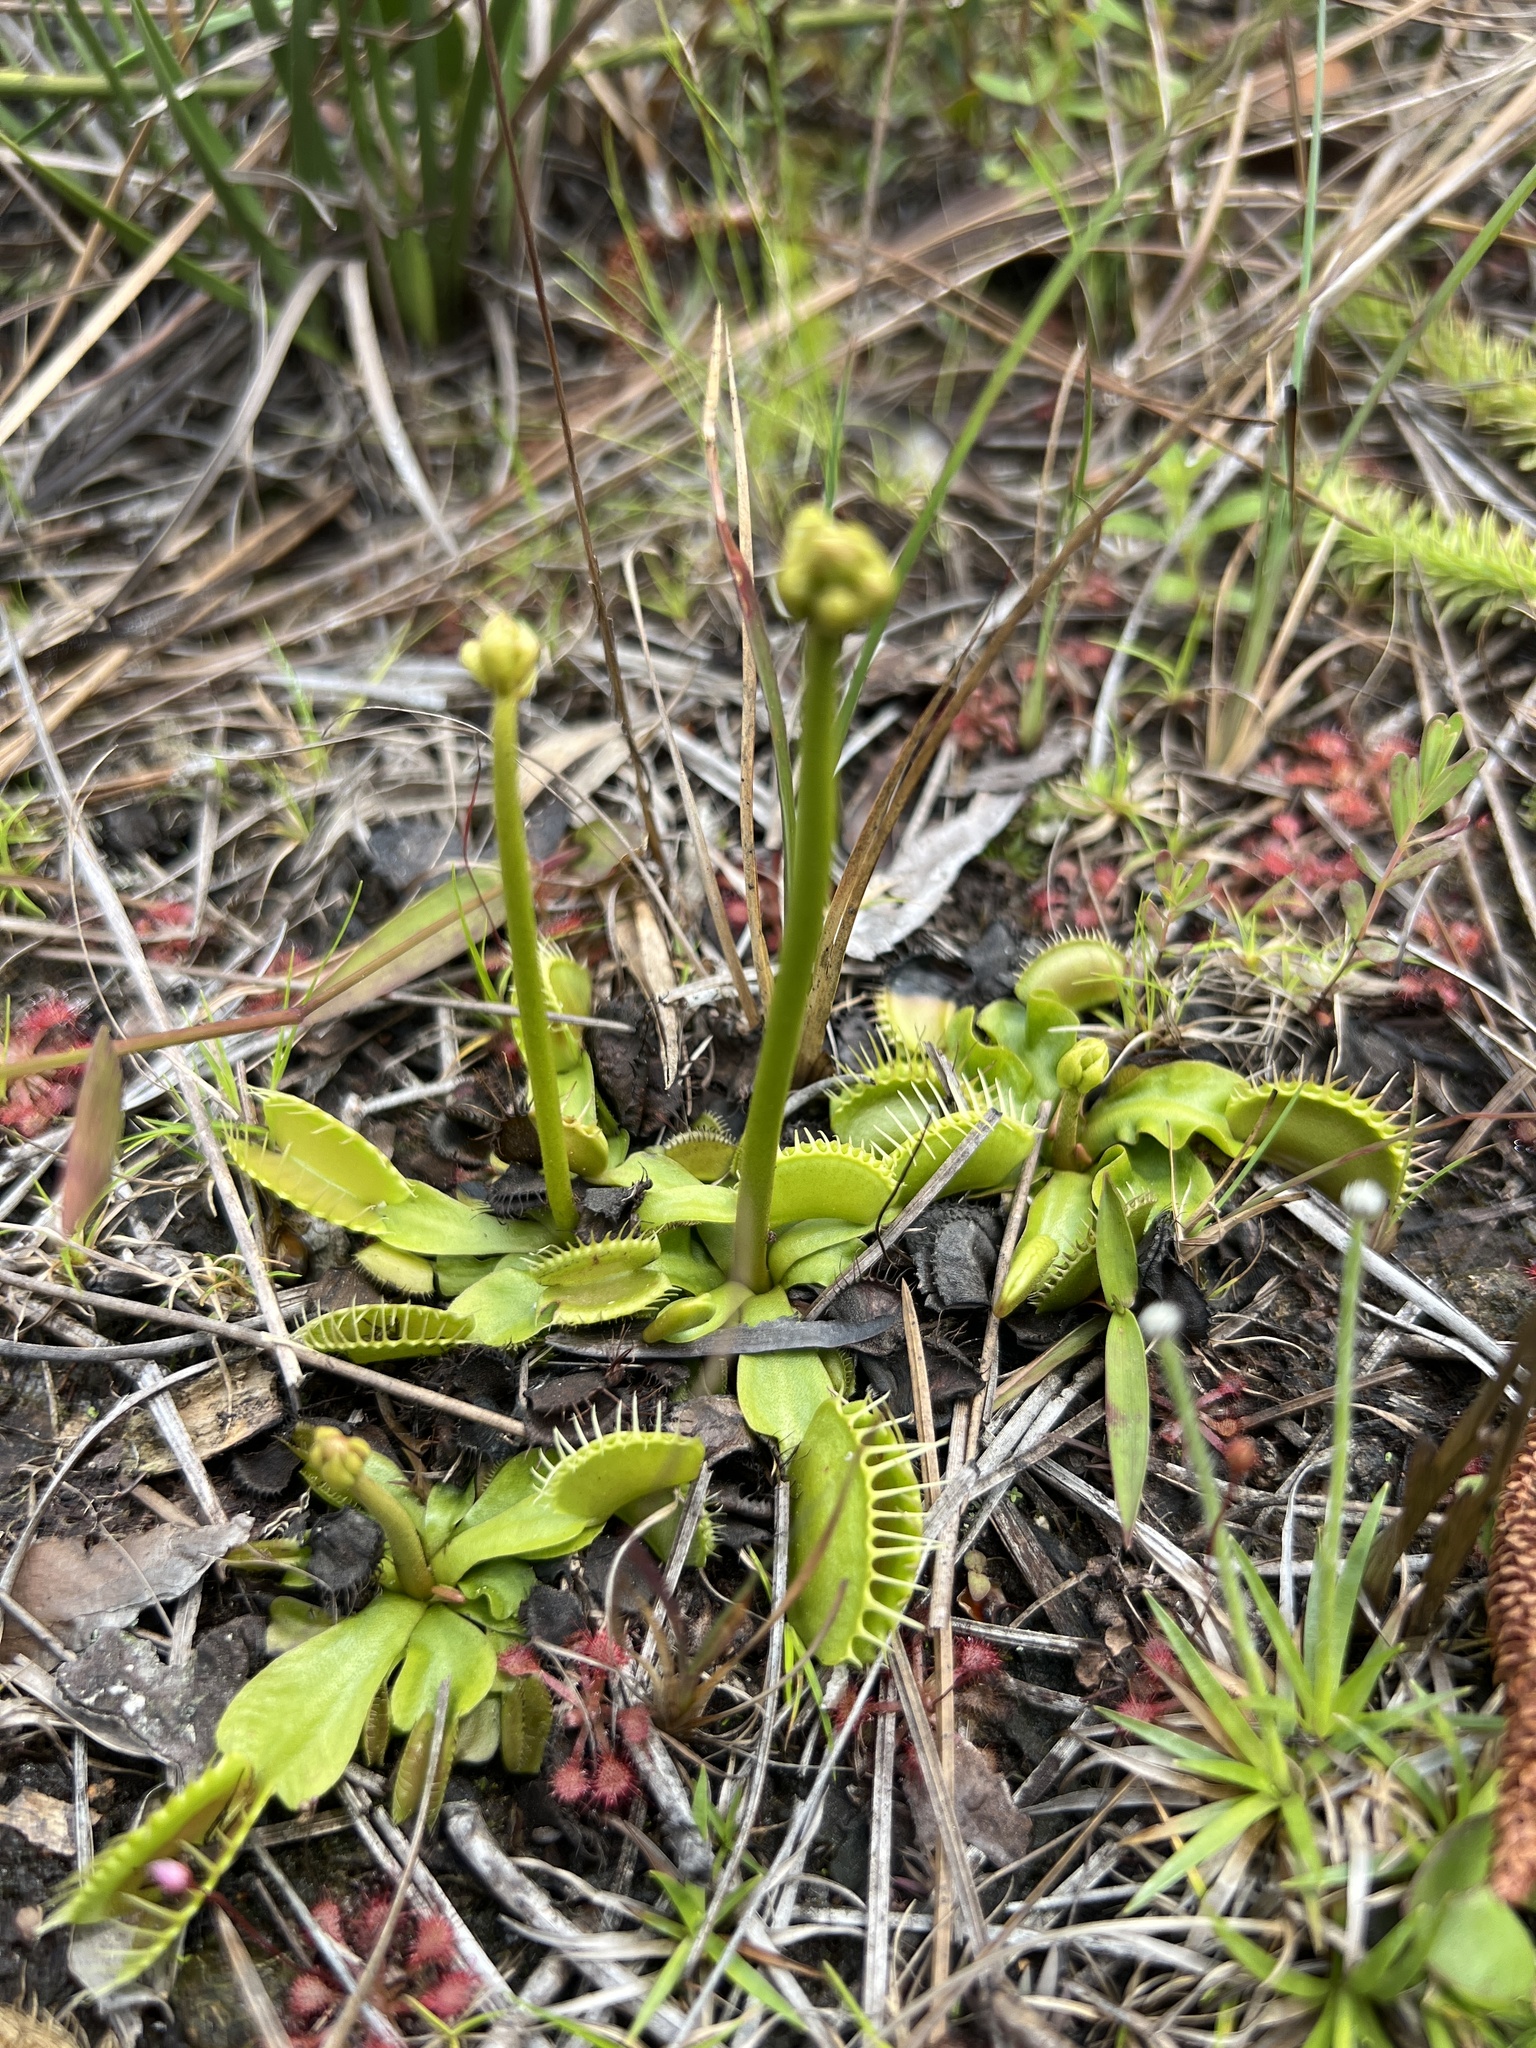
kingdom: Plantae
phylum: Tracheophyta
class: Magnoliopsida
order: Caryophyllales
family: Droseraceae
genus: Dionaea
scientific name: Dionaea muscipula
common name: Venus flytrap
